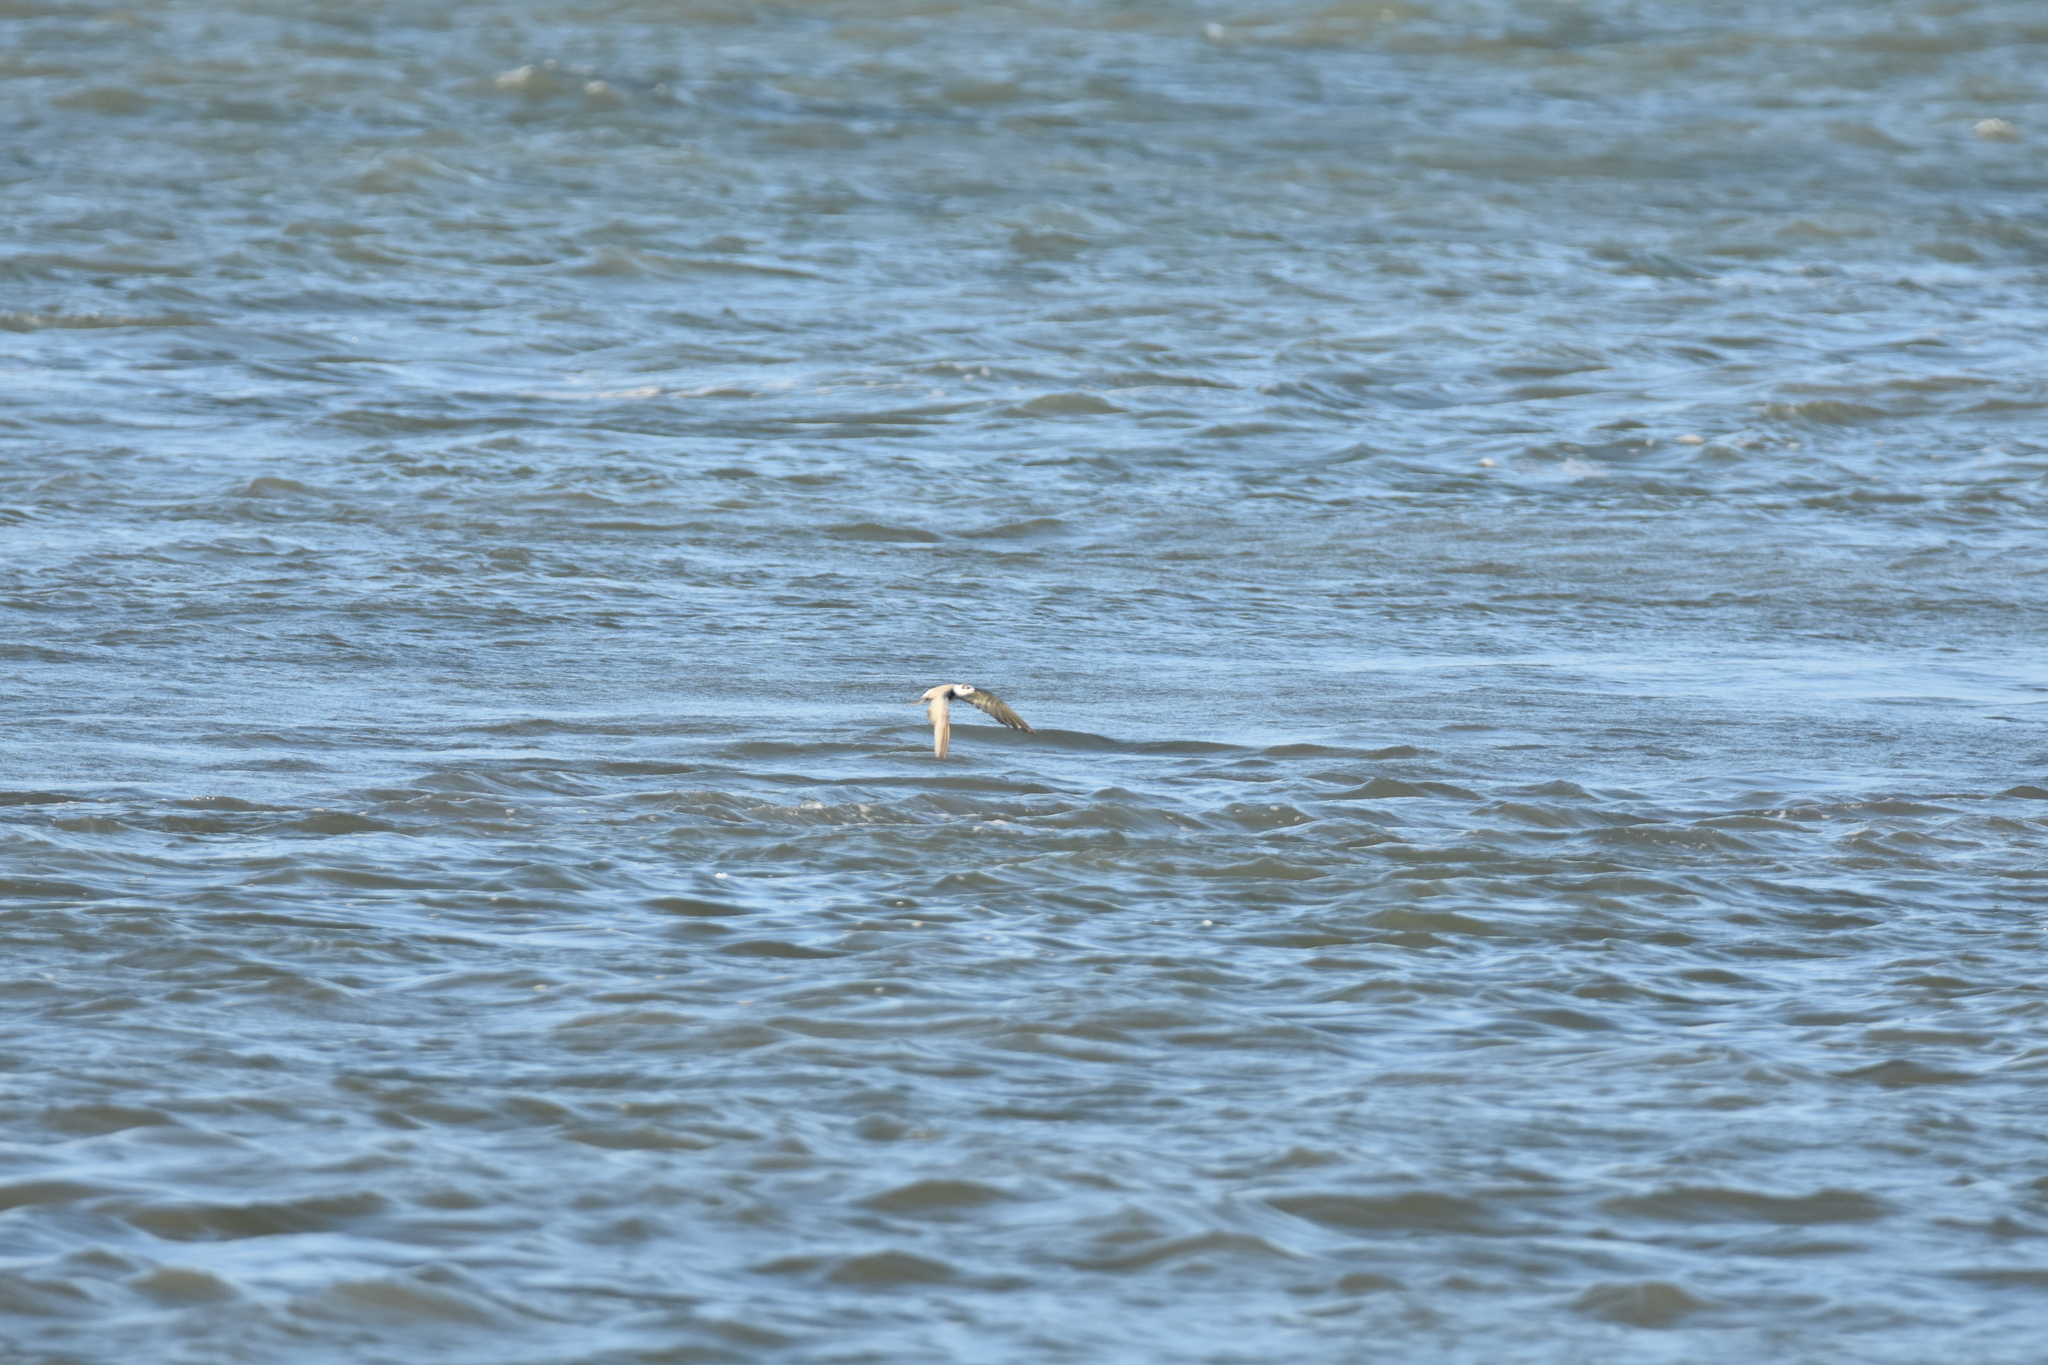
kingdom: Animalia
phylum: Chordata
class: Aves
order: Charadriiformes
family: Laridae
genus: Chlidonias
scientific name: Chlidonias niger
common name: Black tern
